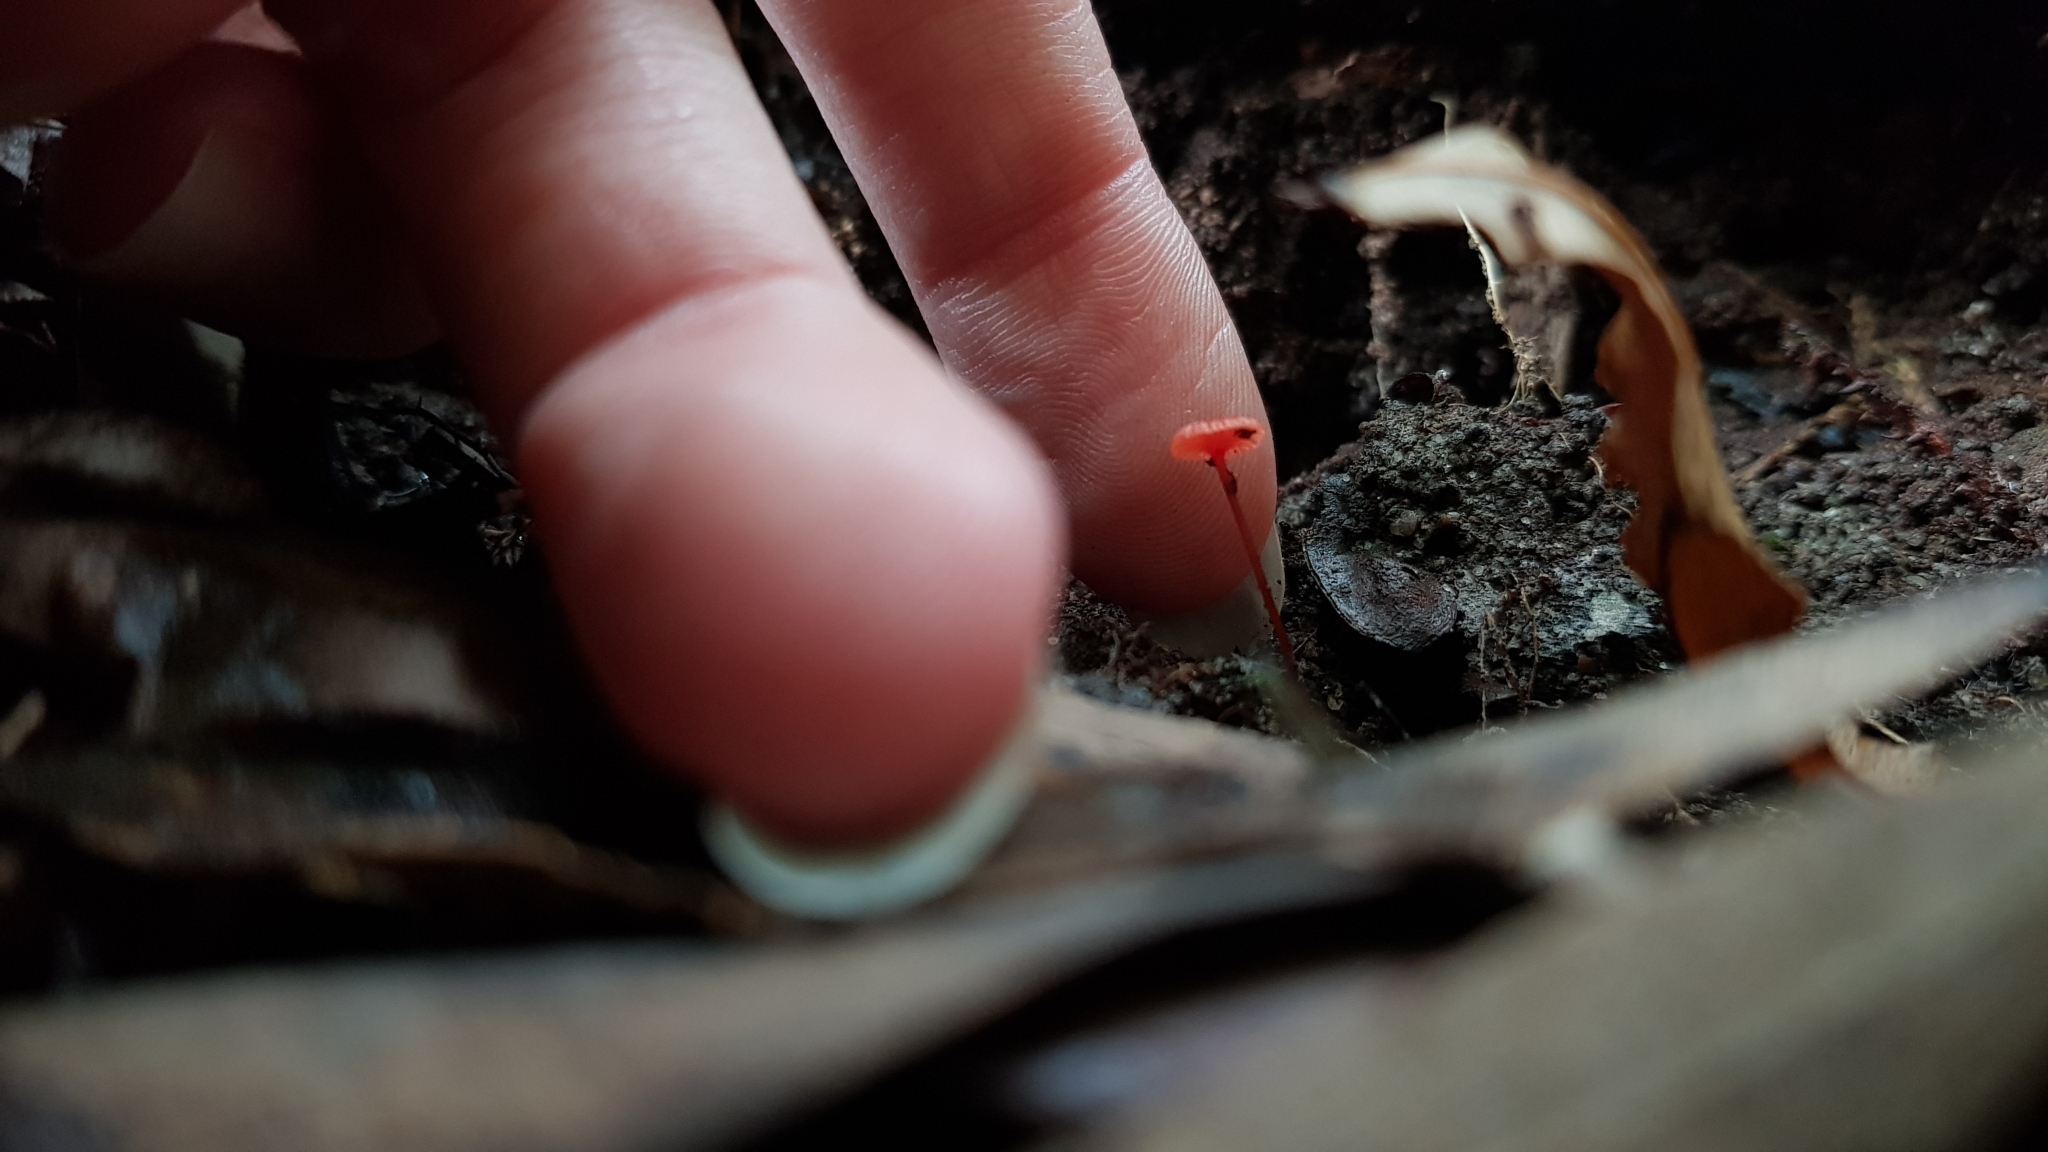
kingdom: Fungi
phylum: Basidiomycota
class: Agaricomycetes
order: Agaricales
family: Mycenaceae
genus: Cruentomycena
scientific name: Cruentomycena viscidocruenta
